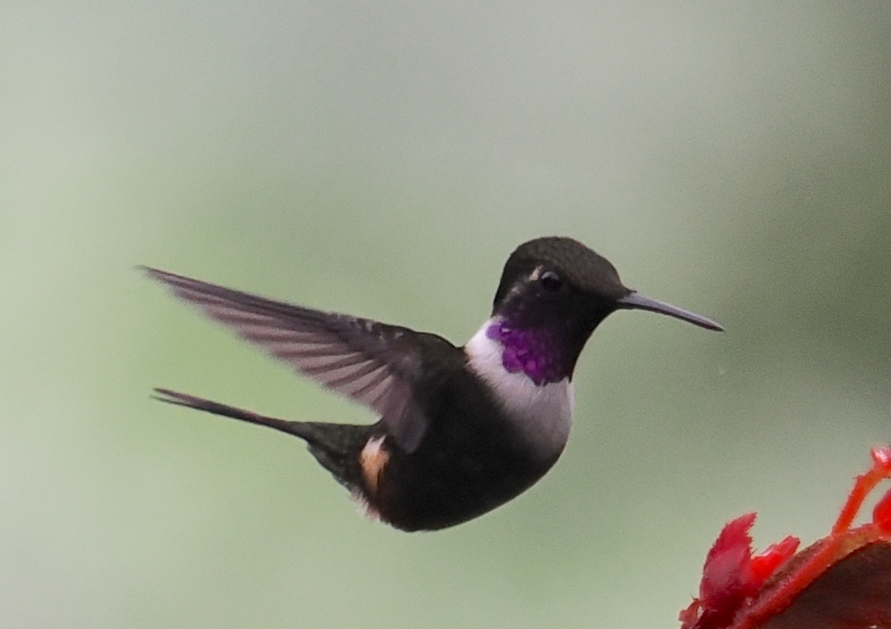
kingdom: Animalia
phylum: Chordata
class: Aves
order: Apodiformes
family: Trochilidae
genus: Calliphlox
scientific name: Calliphlox mitchellii
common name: Purple-throated woodstar
